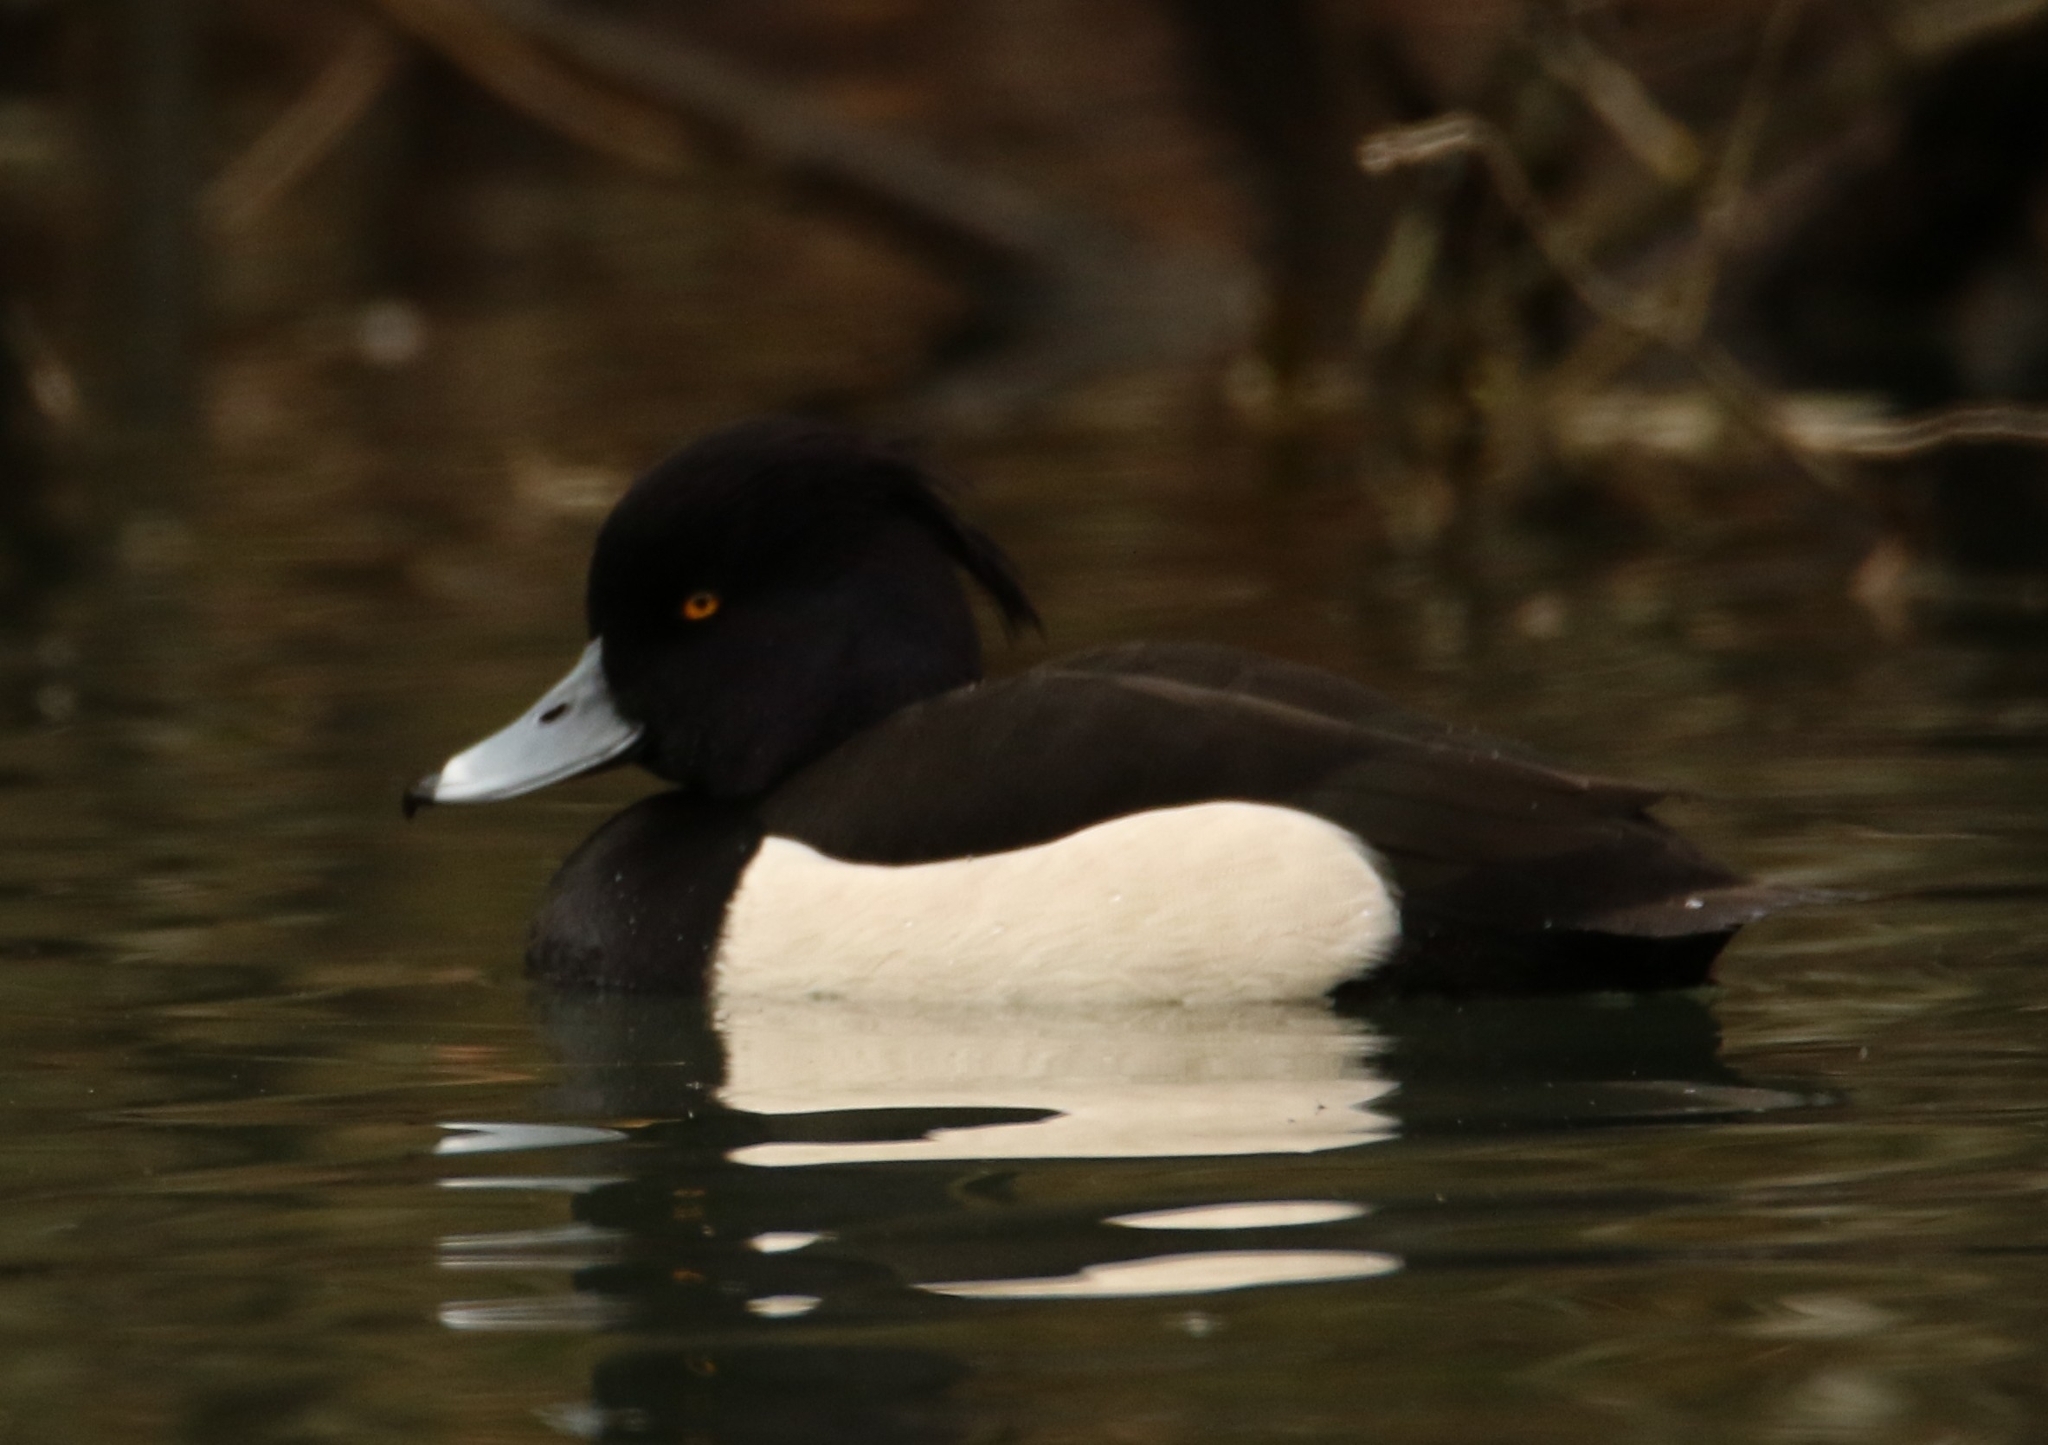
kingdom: Animalia
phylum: Chordata
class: Aves
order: Anseriformes
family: Anatidae
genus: Aythya
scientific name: Aythya fuligula
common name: Tufted duck
